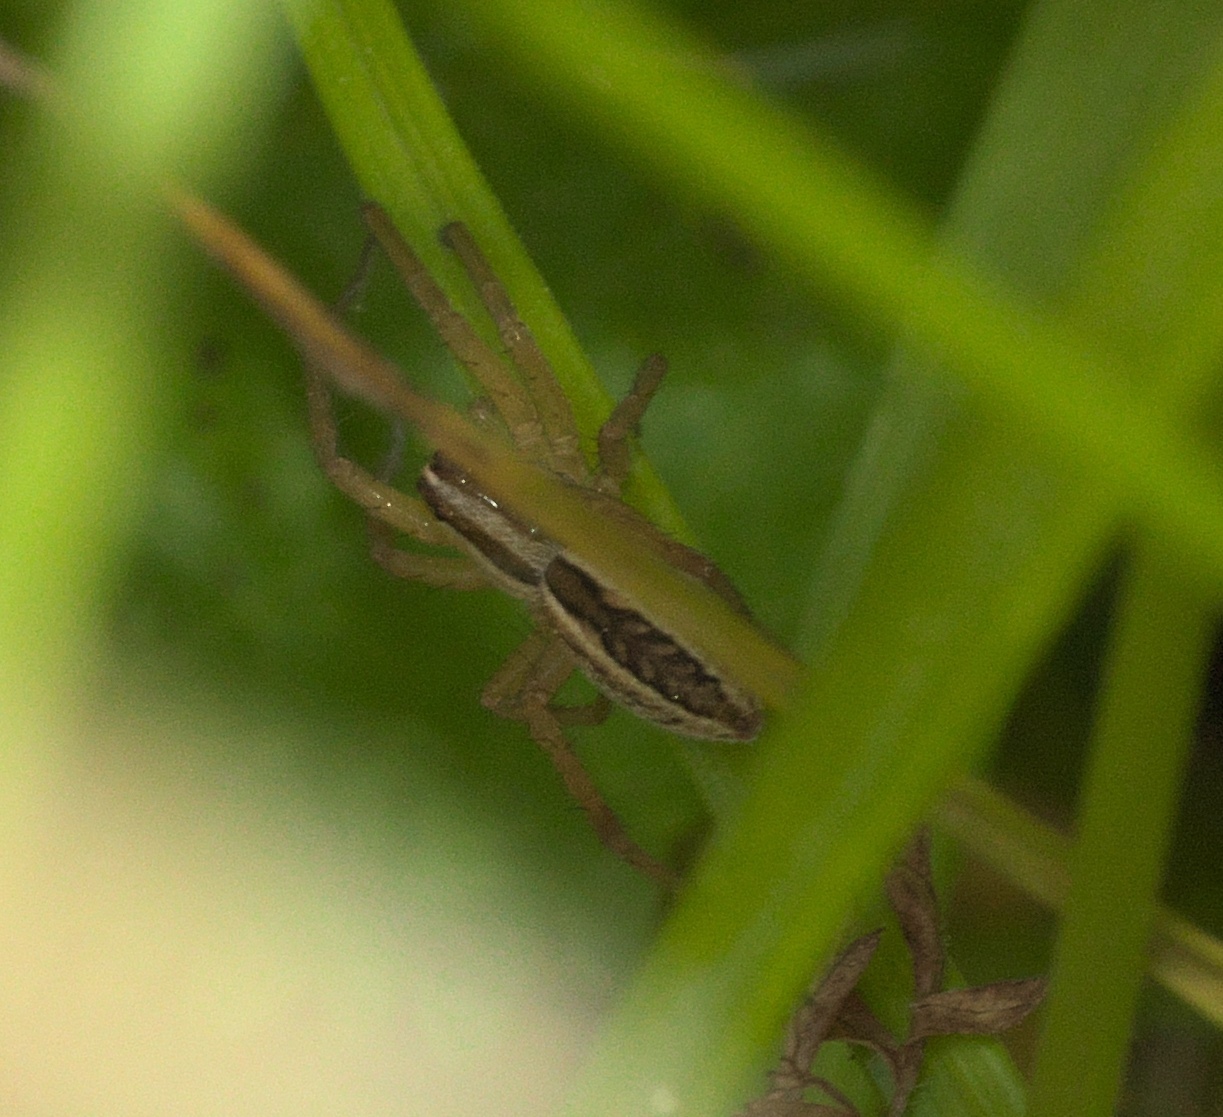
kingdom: Animalia
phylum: Arthropoda
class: Arachnida
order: Araneae
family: Lycosidae
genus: Rabidosa
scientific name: Rabidosa rabida
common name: Rabid wolf spider
